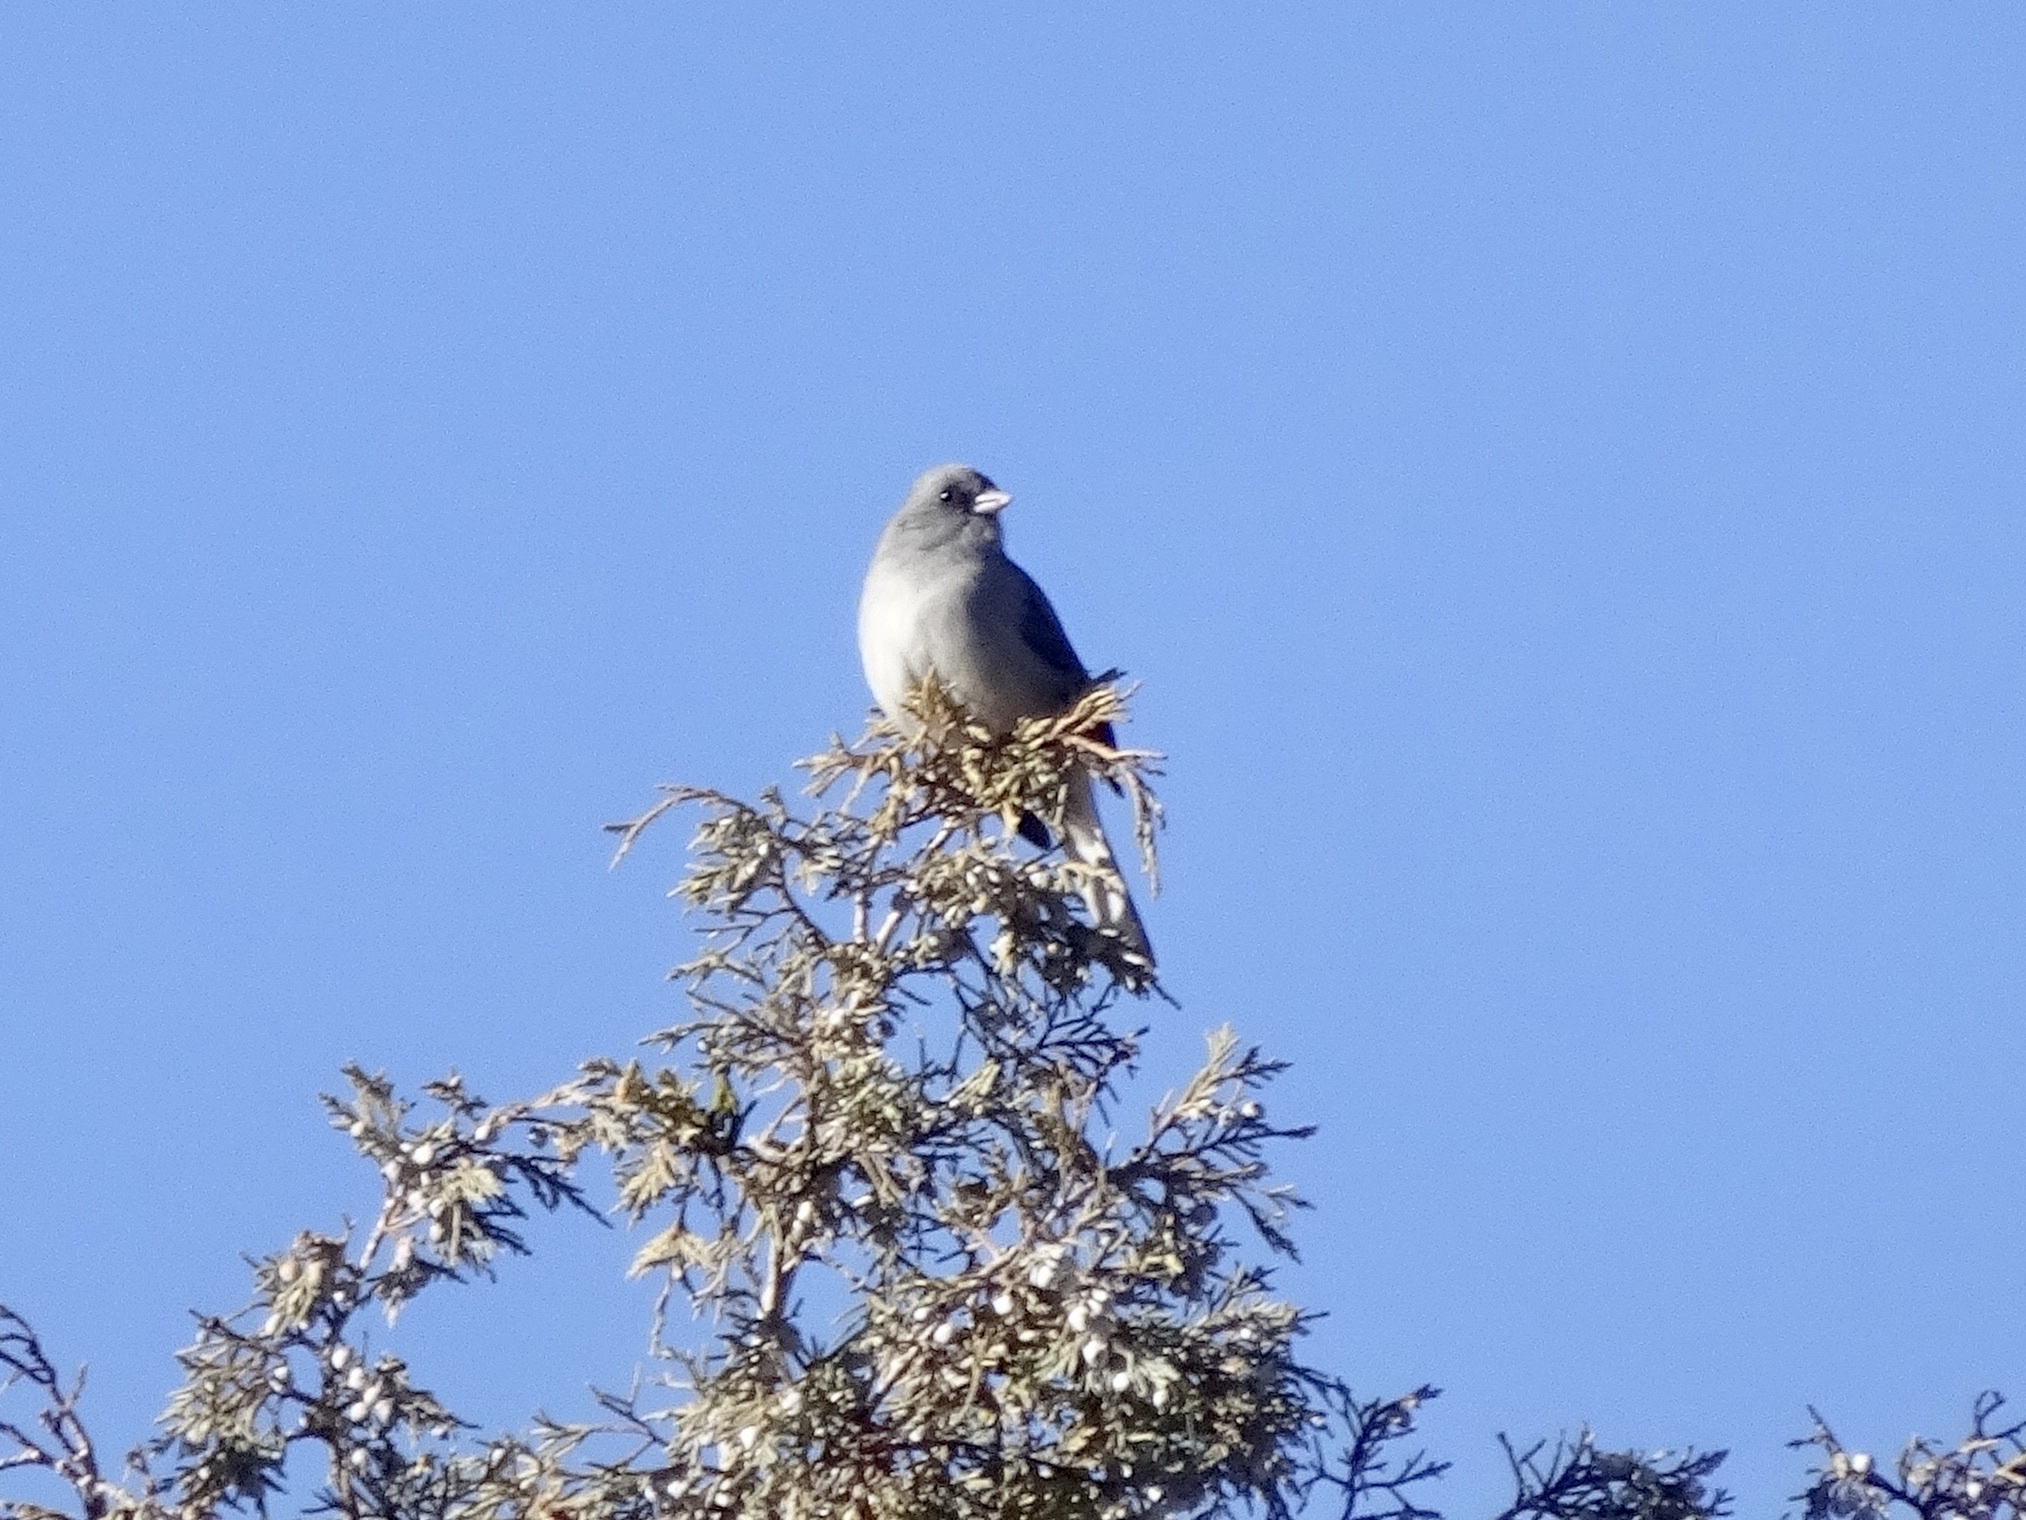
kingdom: Animalia
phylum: Chordata
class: Aves
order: Passeriformes
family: Passerellidae
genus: Junco
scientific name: Junco hyemalis
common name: Dark-eyed junco
